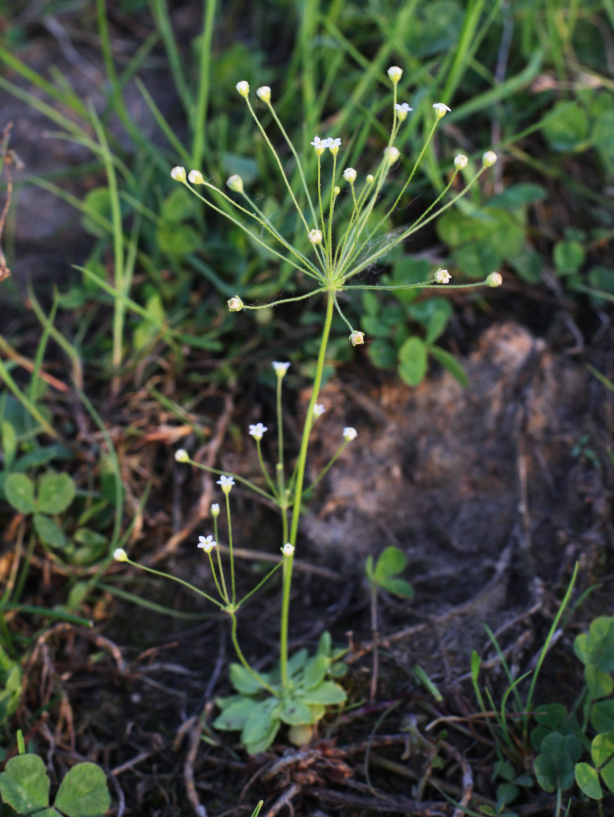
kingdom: Plantae
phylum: Tracheophyta
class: Magnoliopsida
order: Ericales
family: Primulaceae
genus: Androsace
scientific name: Androsace filiformis
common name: Filiform rock jasmine
